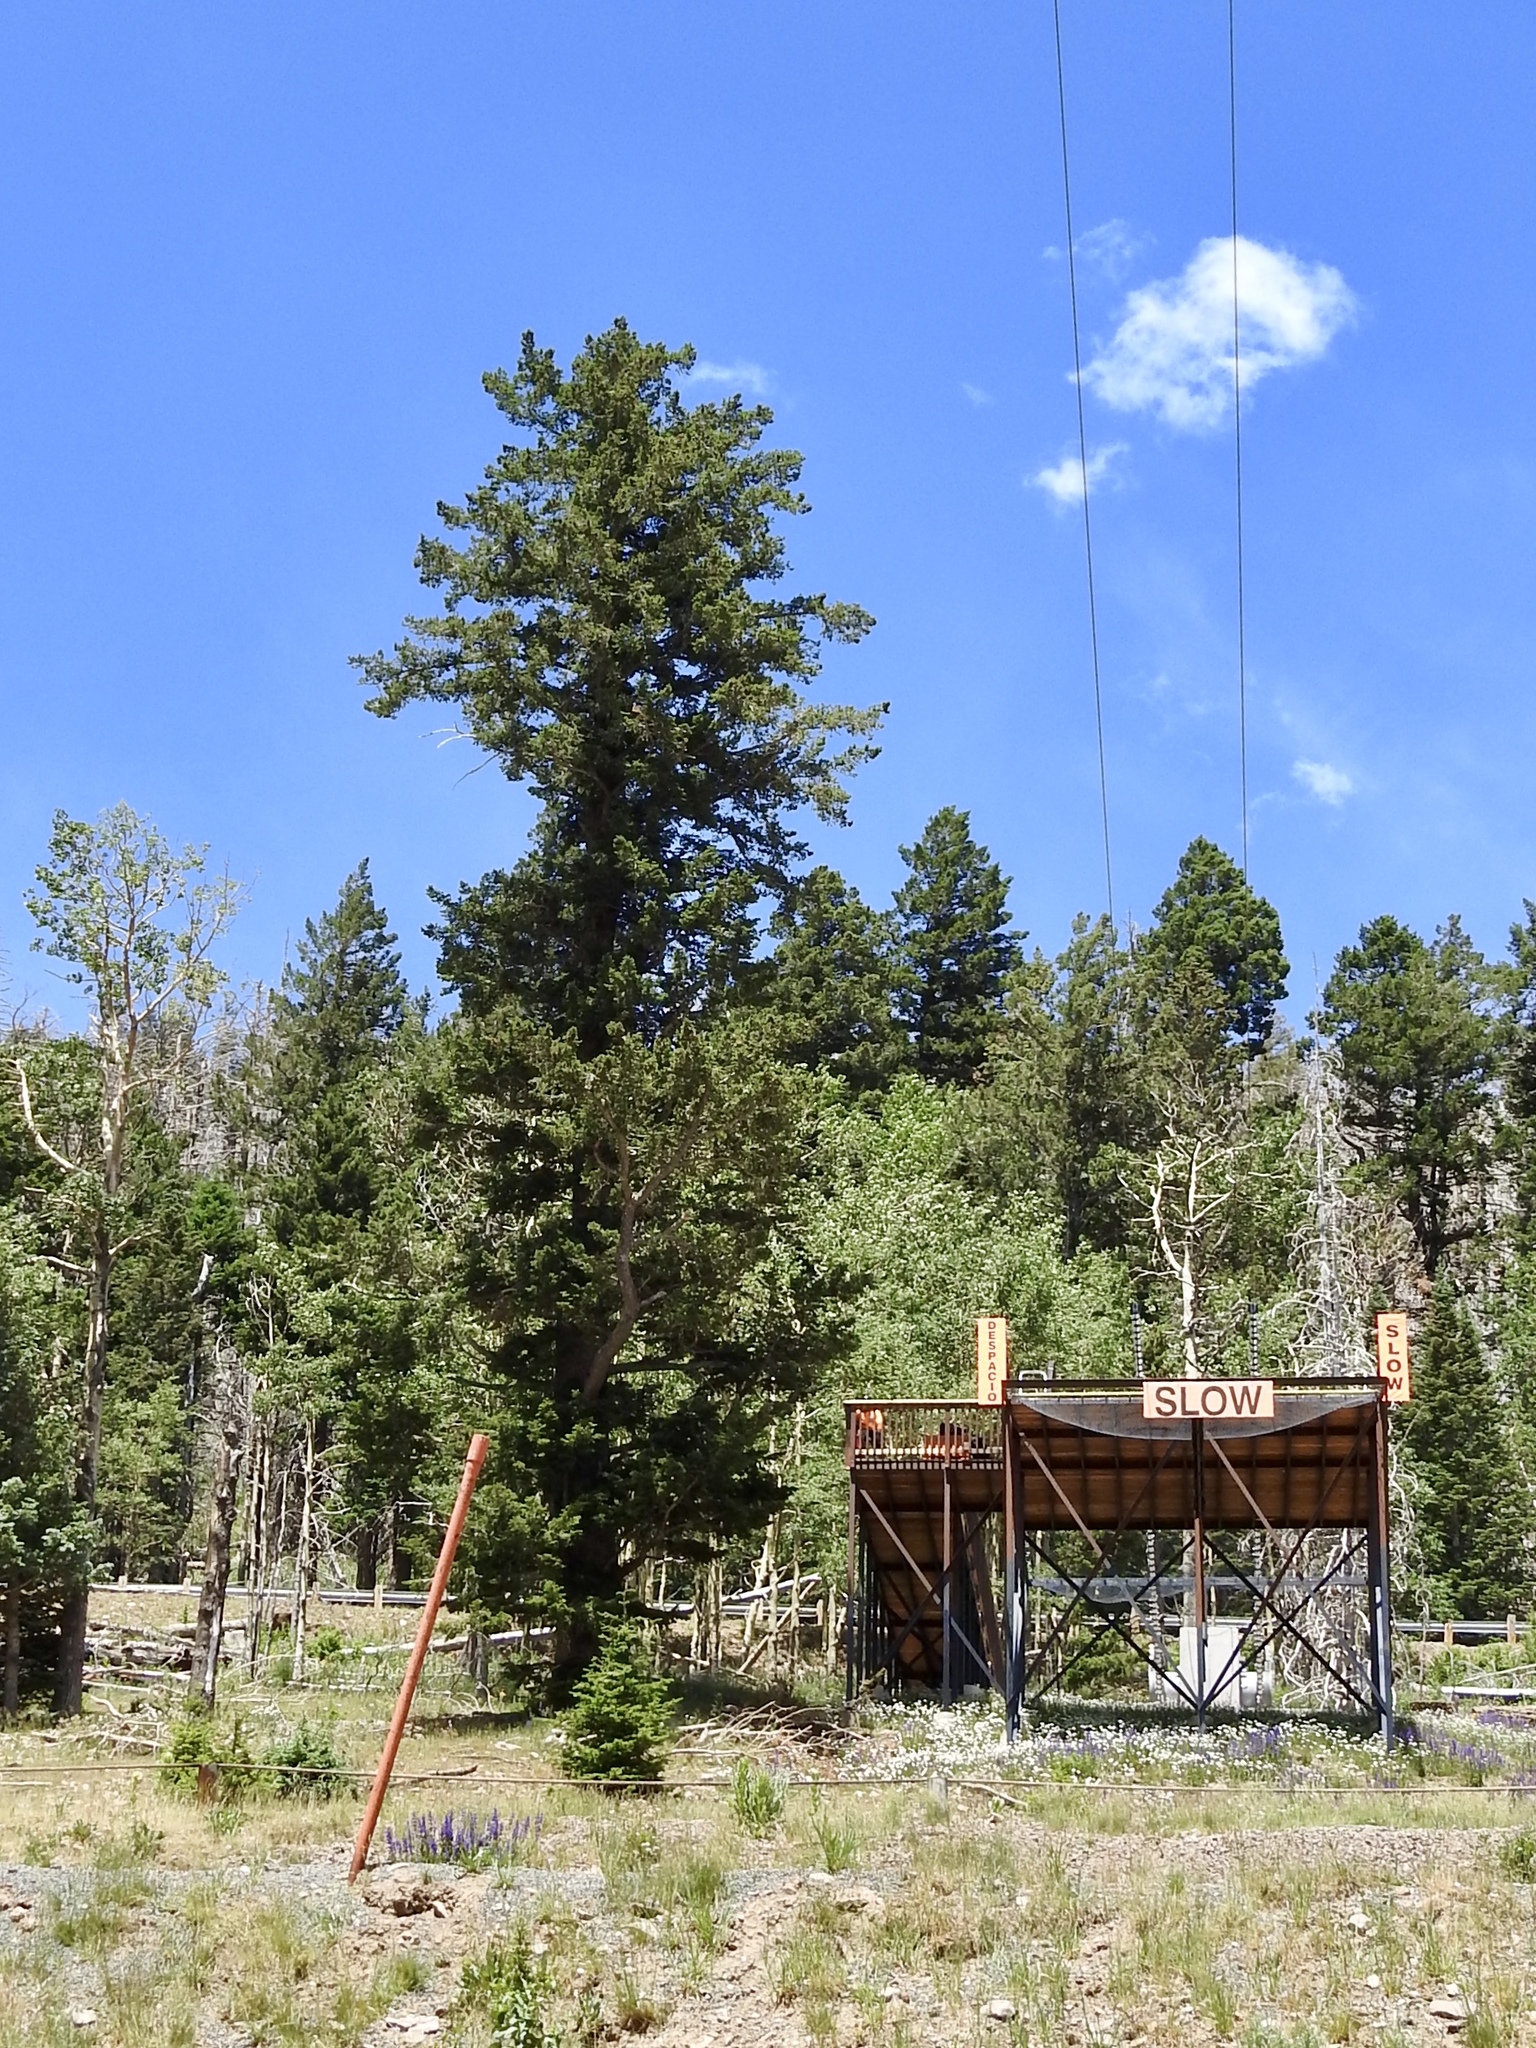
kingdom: Plantae
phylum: Tracheophyta
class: Pinopsida
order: Pinales
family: Pinaceae
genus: Pseudotsuga
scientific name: Pseudotsuga menziesii
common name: Douglas fir
